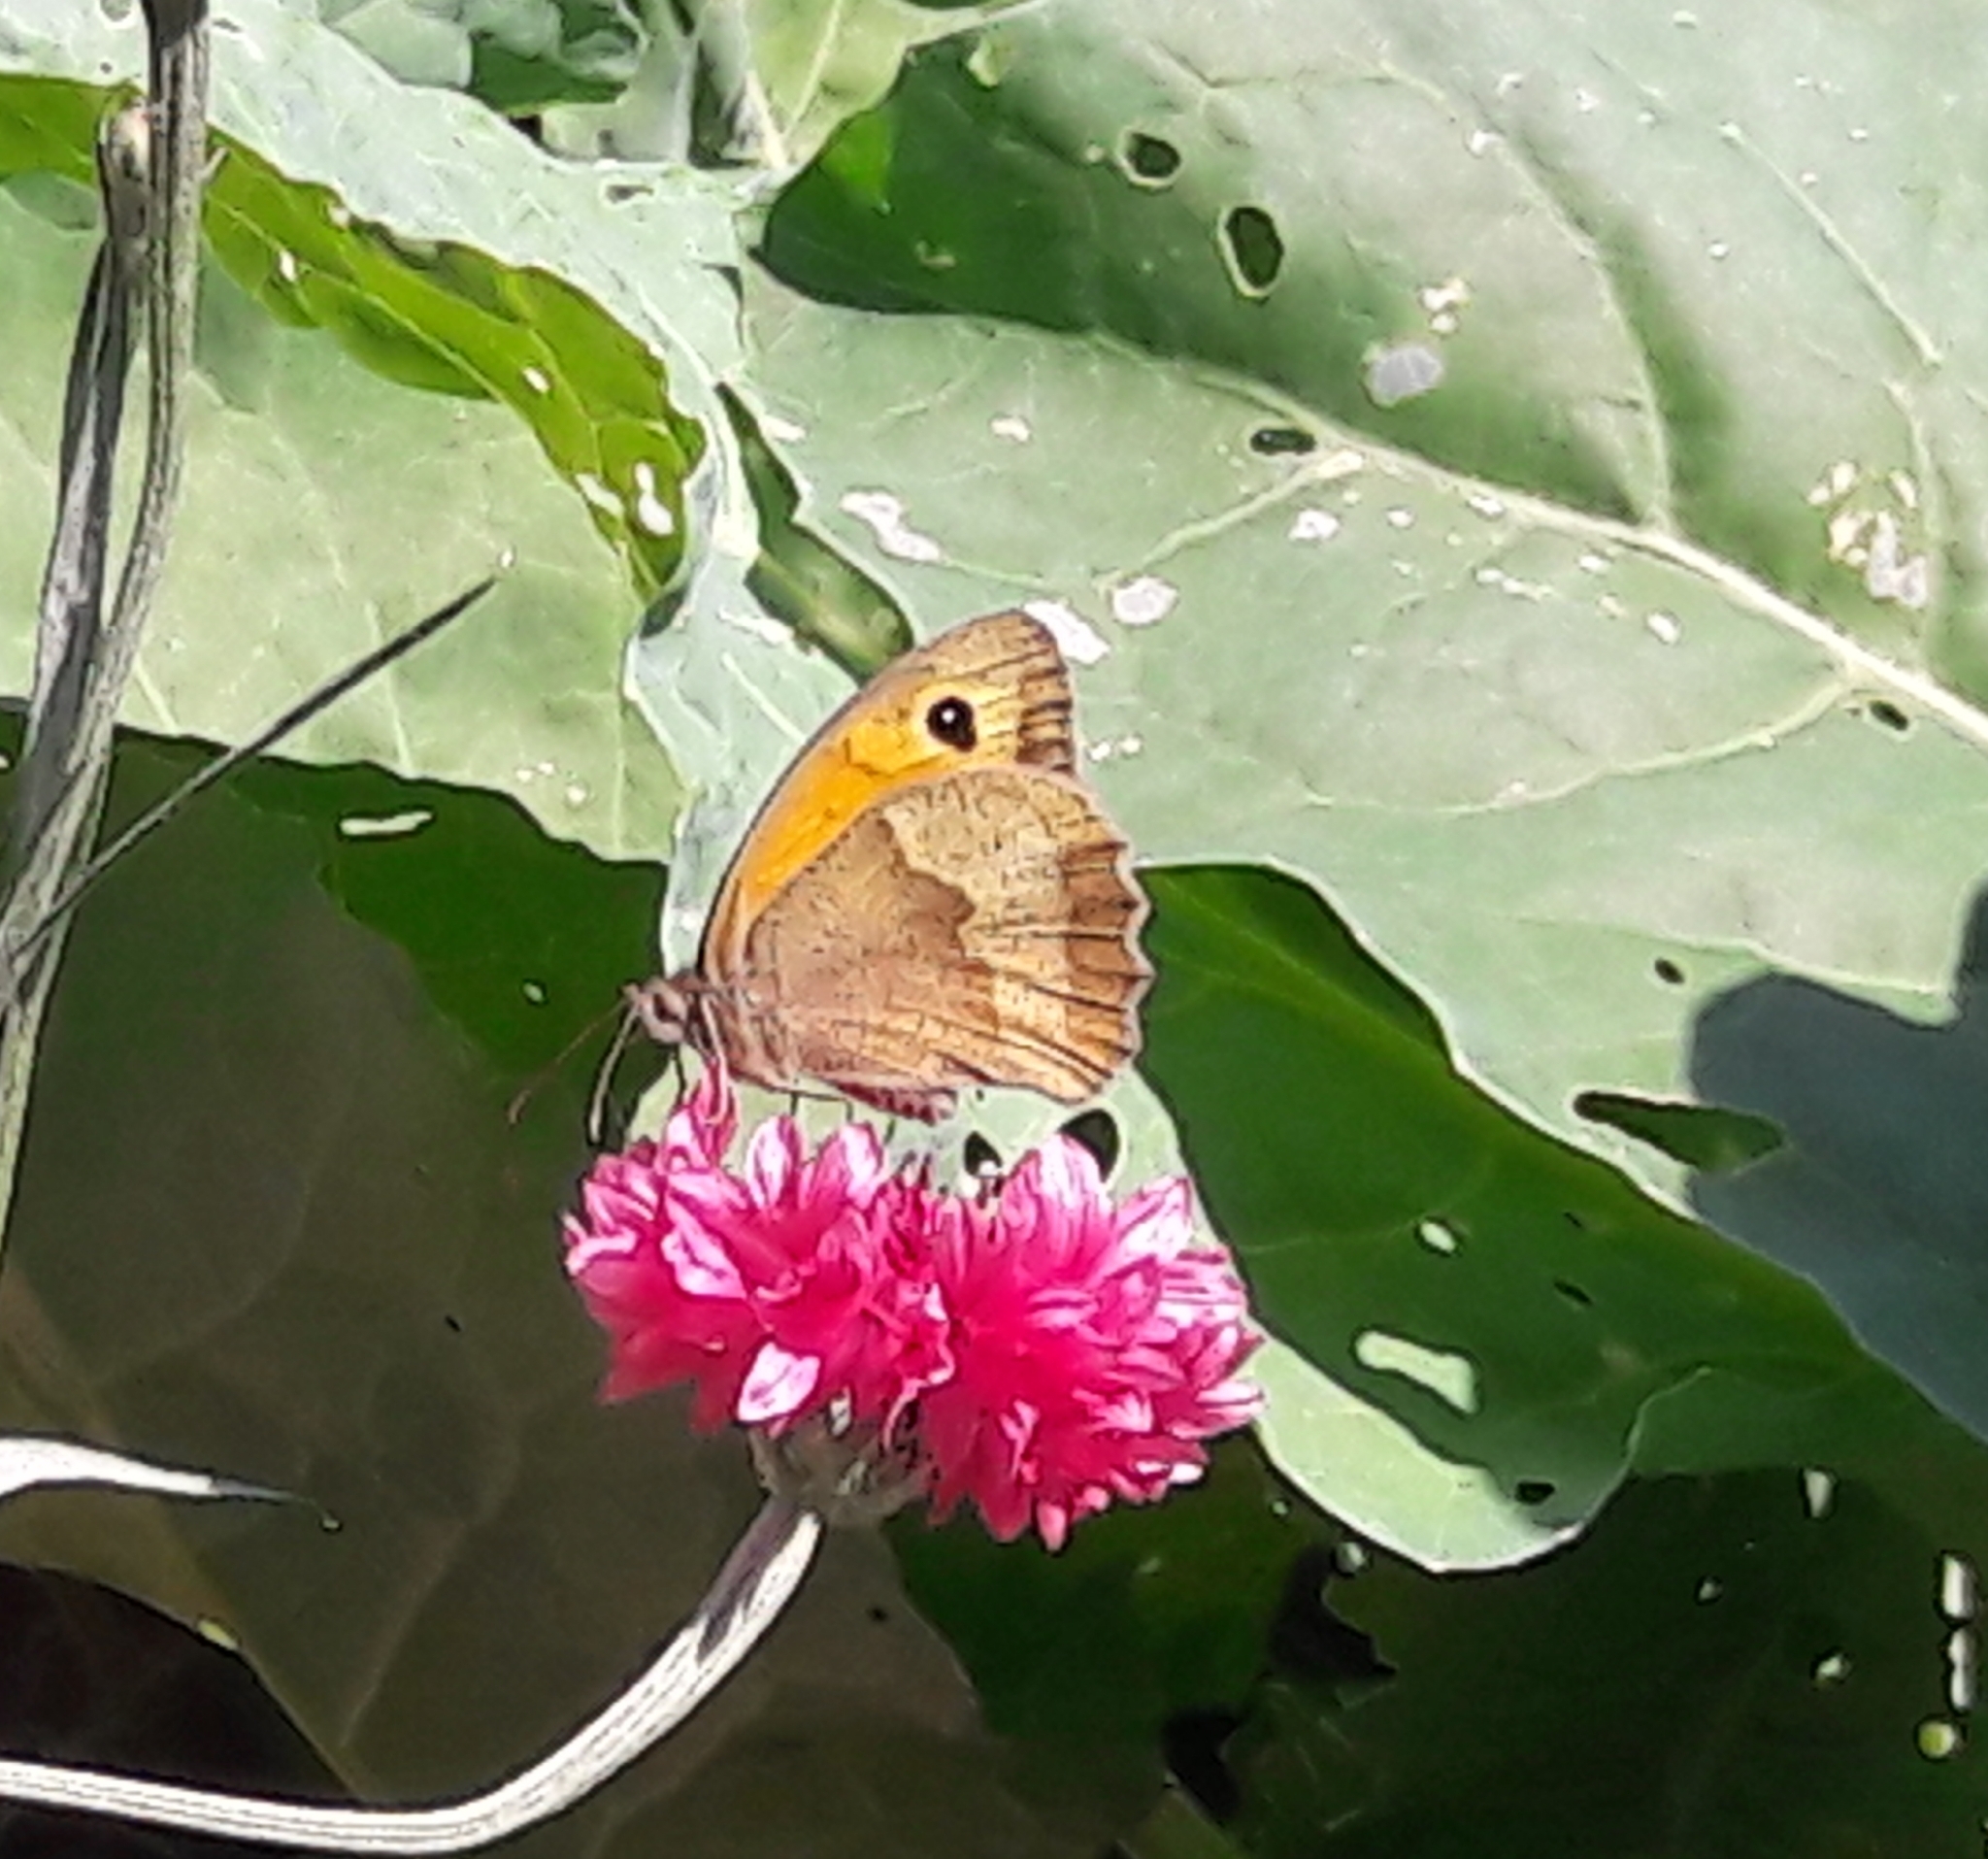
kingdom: Animalia
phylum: Arthropoda
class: Insecta
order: Lepidoptera
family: Nymphalidae
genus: Maniola
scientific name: Maniola jurtina
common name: Meadow brown
